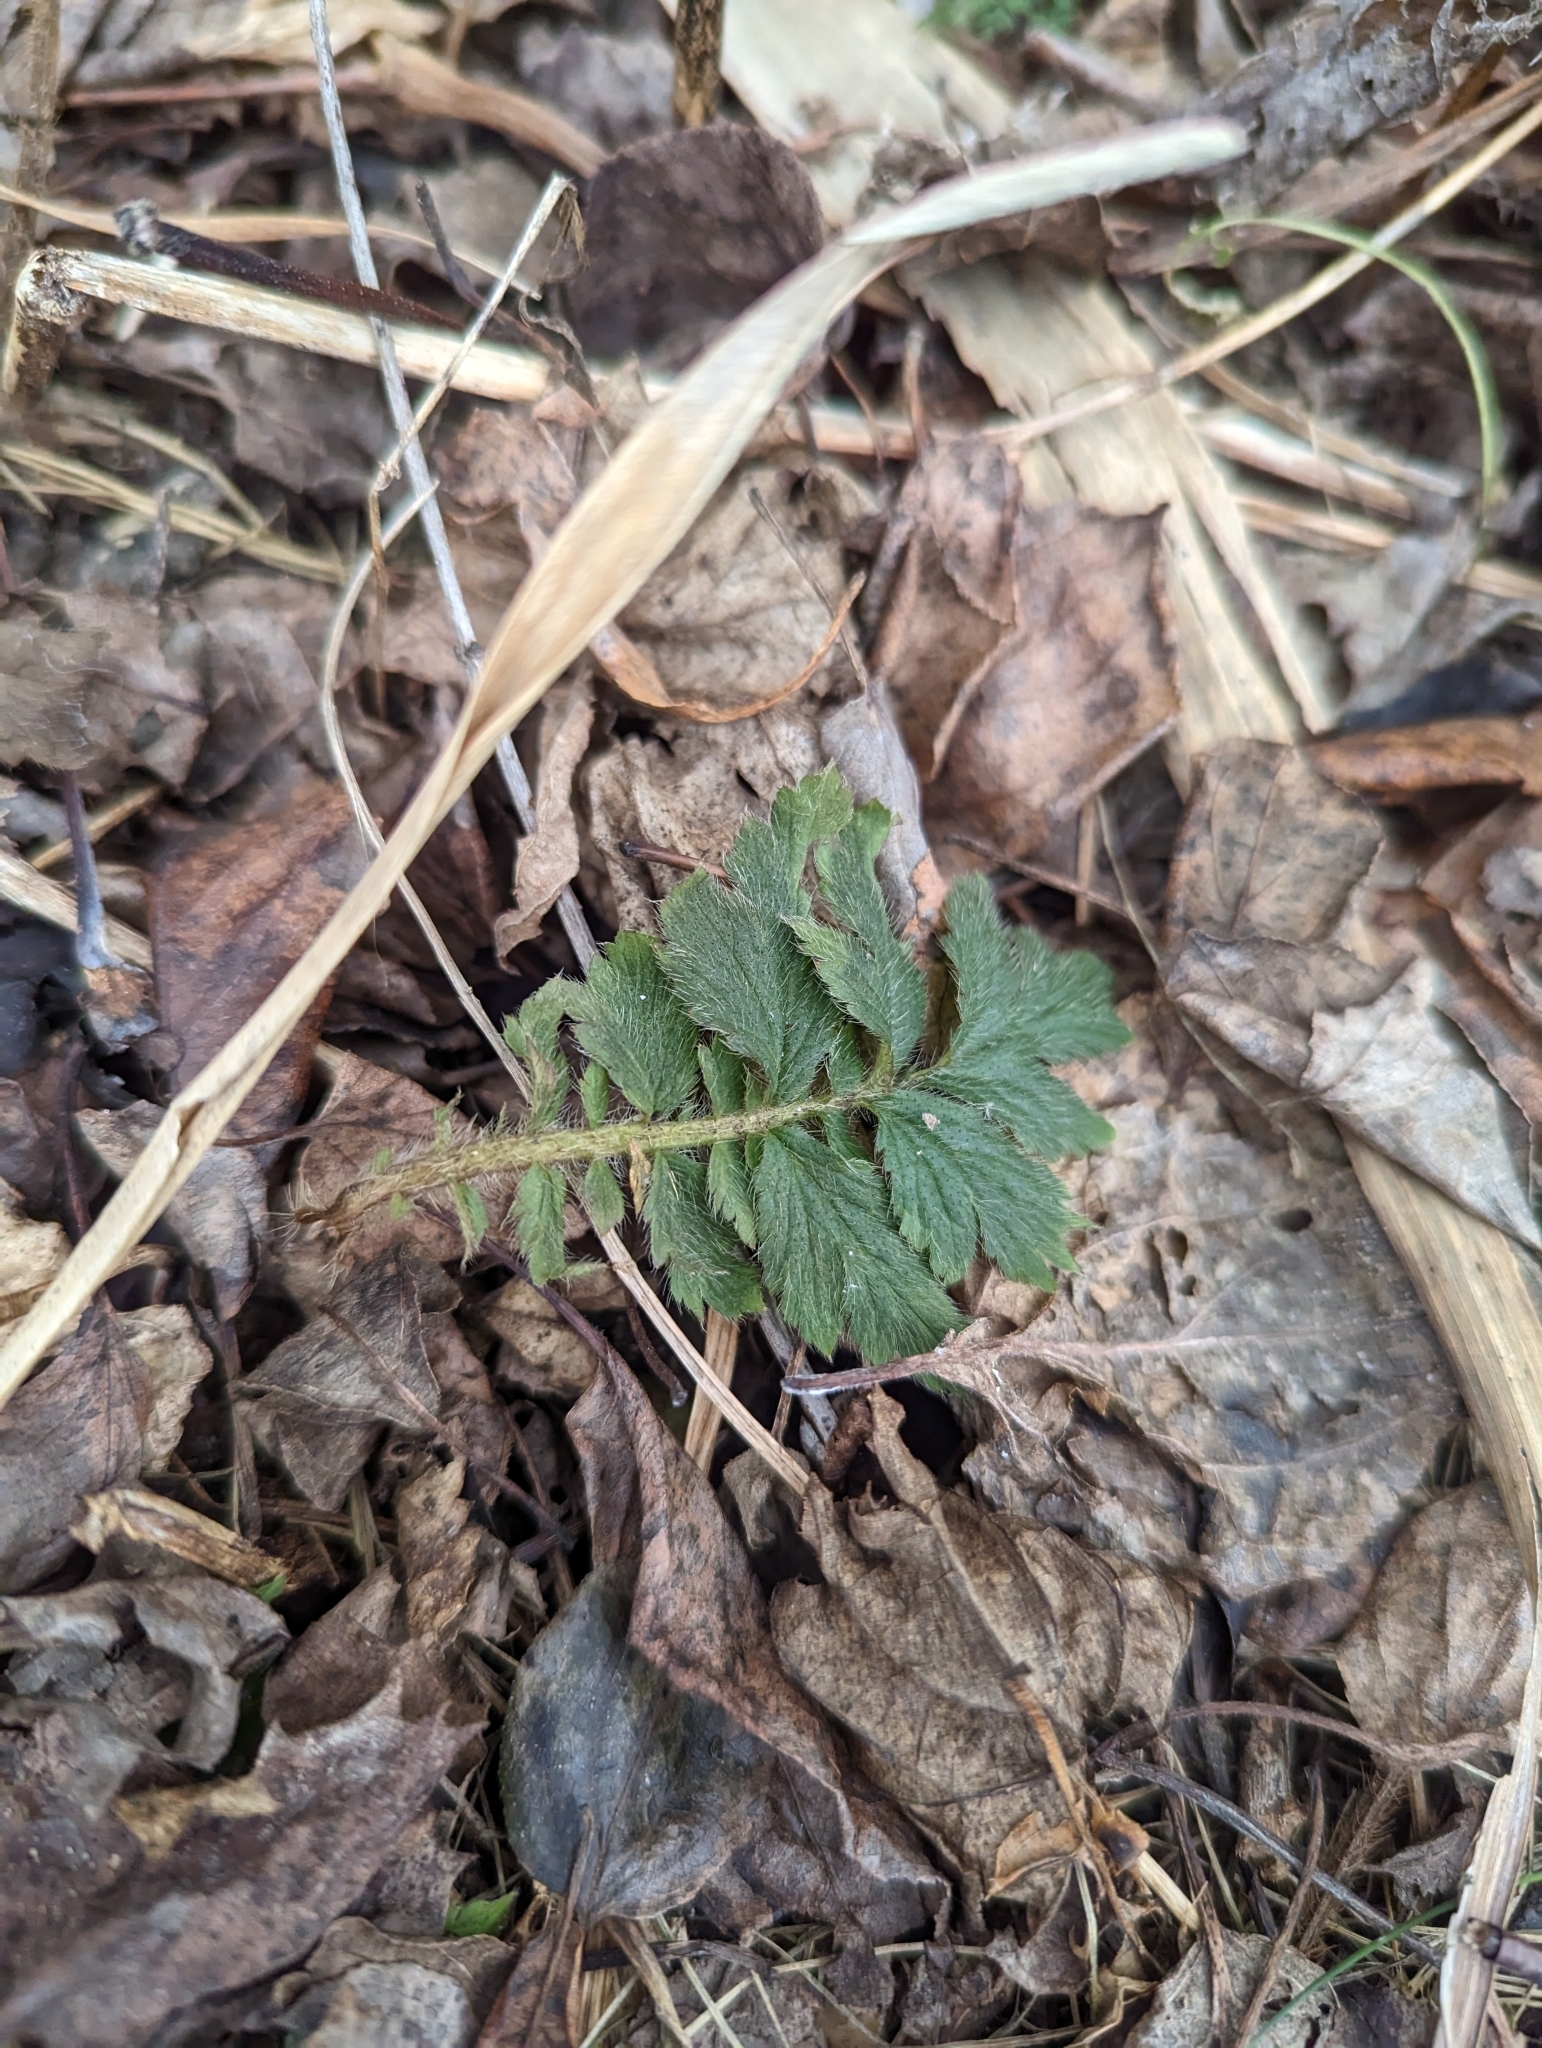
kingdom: Plantae
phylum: Tracheophyta
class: Magnoliopsida
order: Rosales
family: Rosaceae
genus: Agrimonia
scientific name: Agrimonia parviflora
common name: Harvest-lice
